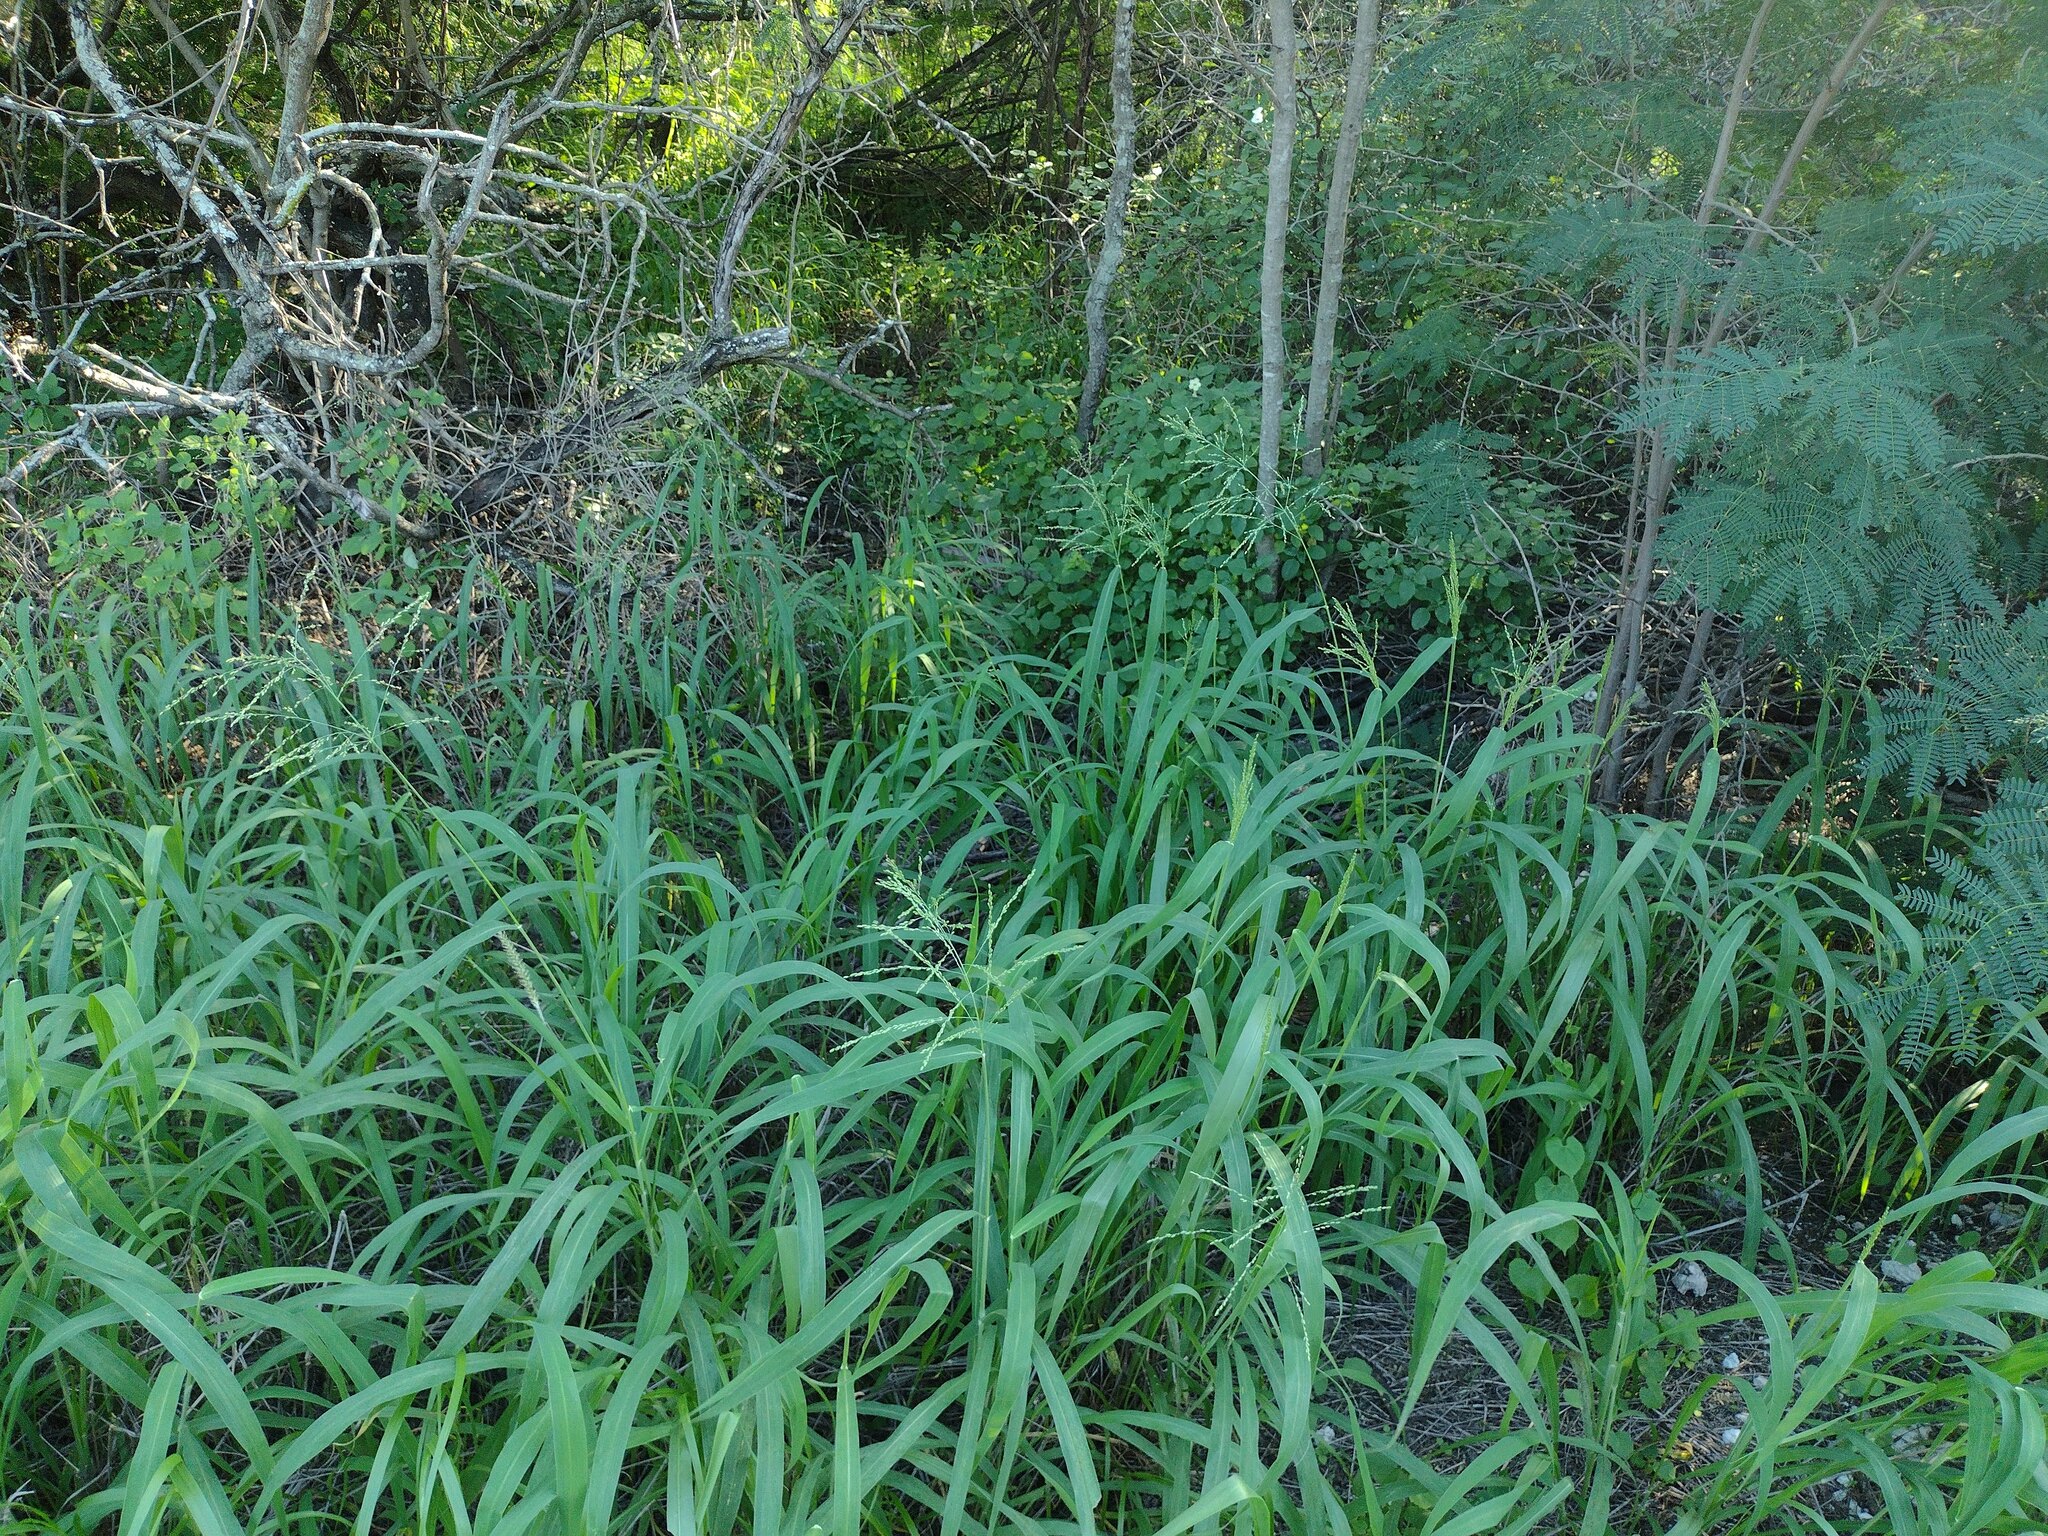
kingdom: Plantae
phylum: Tracheophyta
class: Liliopsida
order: Poales
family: Poaceae
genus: Megathyrsus
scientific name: Megathyrsus maximus
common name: Guineagrass
